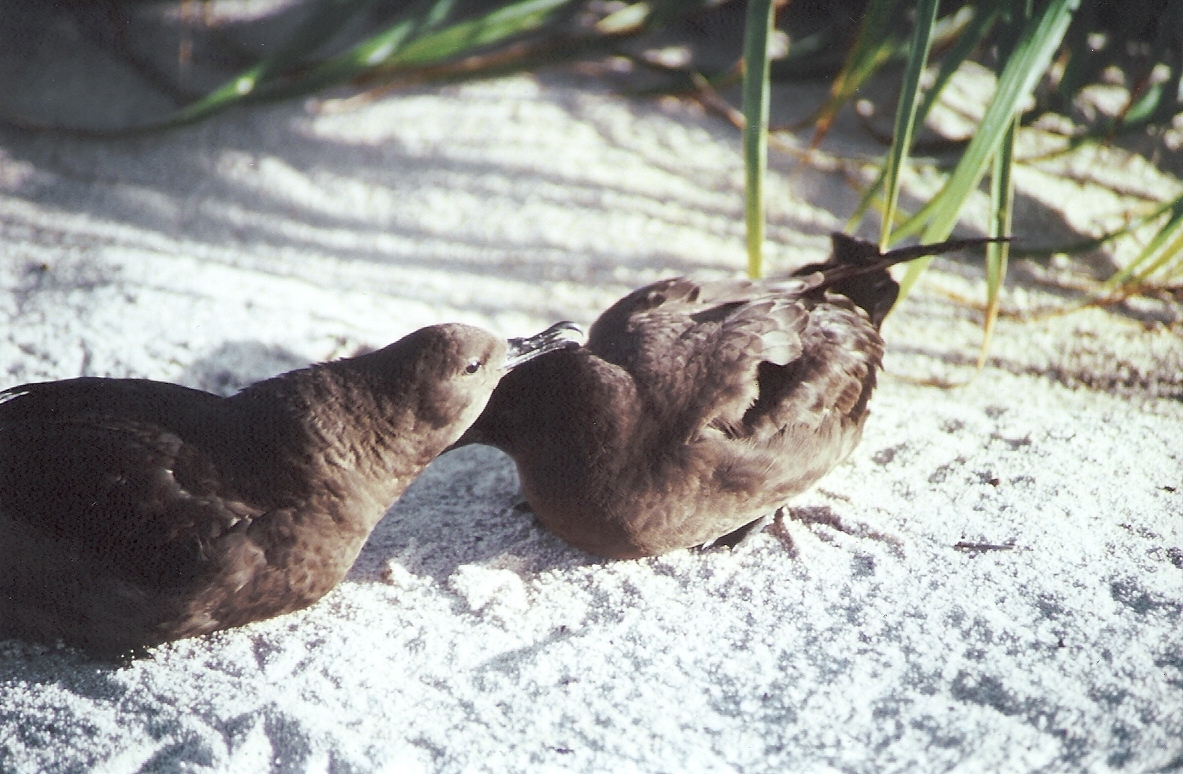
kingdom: Animalia
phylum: Chordata
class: Aves
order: Procellariiformes
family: Procellariidae
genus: Puffinus
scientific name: Puffinus nativitatis
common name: Christmas shearwater
